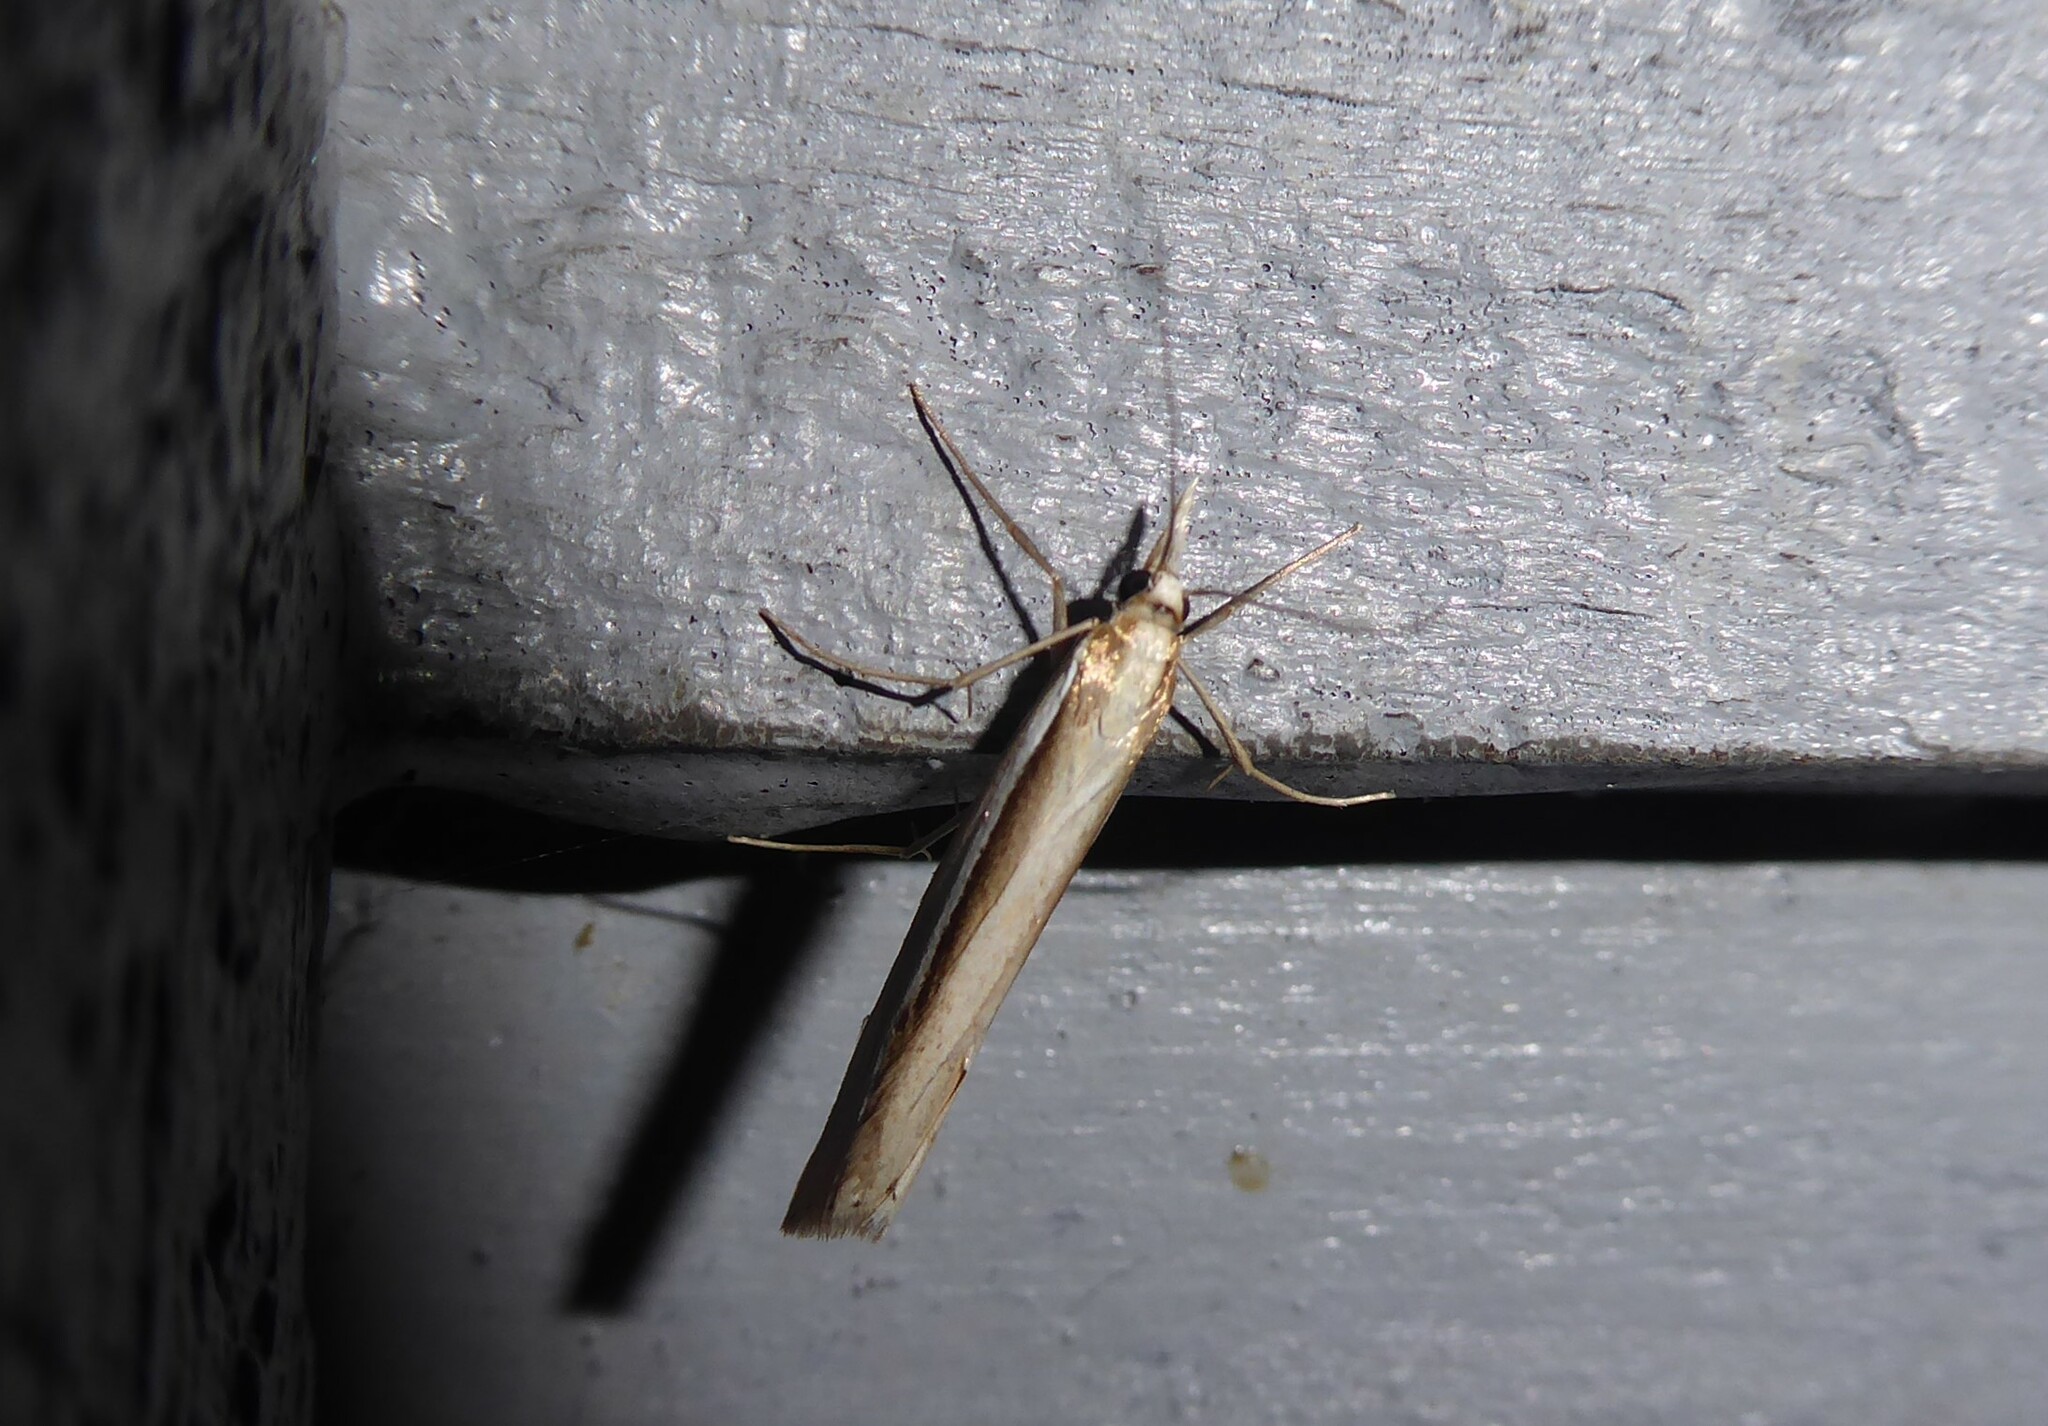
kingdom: Animalia
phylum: Arthropoda
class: Insecta
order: Lepidoptera
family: Crambidae
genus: Orocrambus
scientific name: Orocrambus ramosellus
